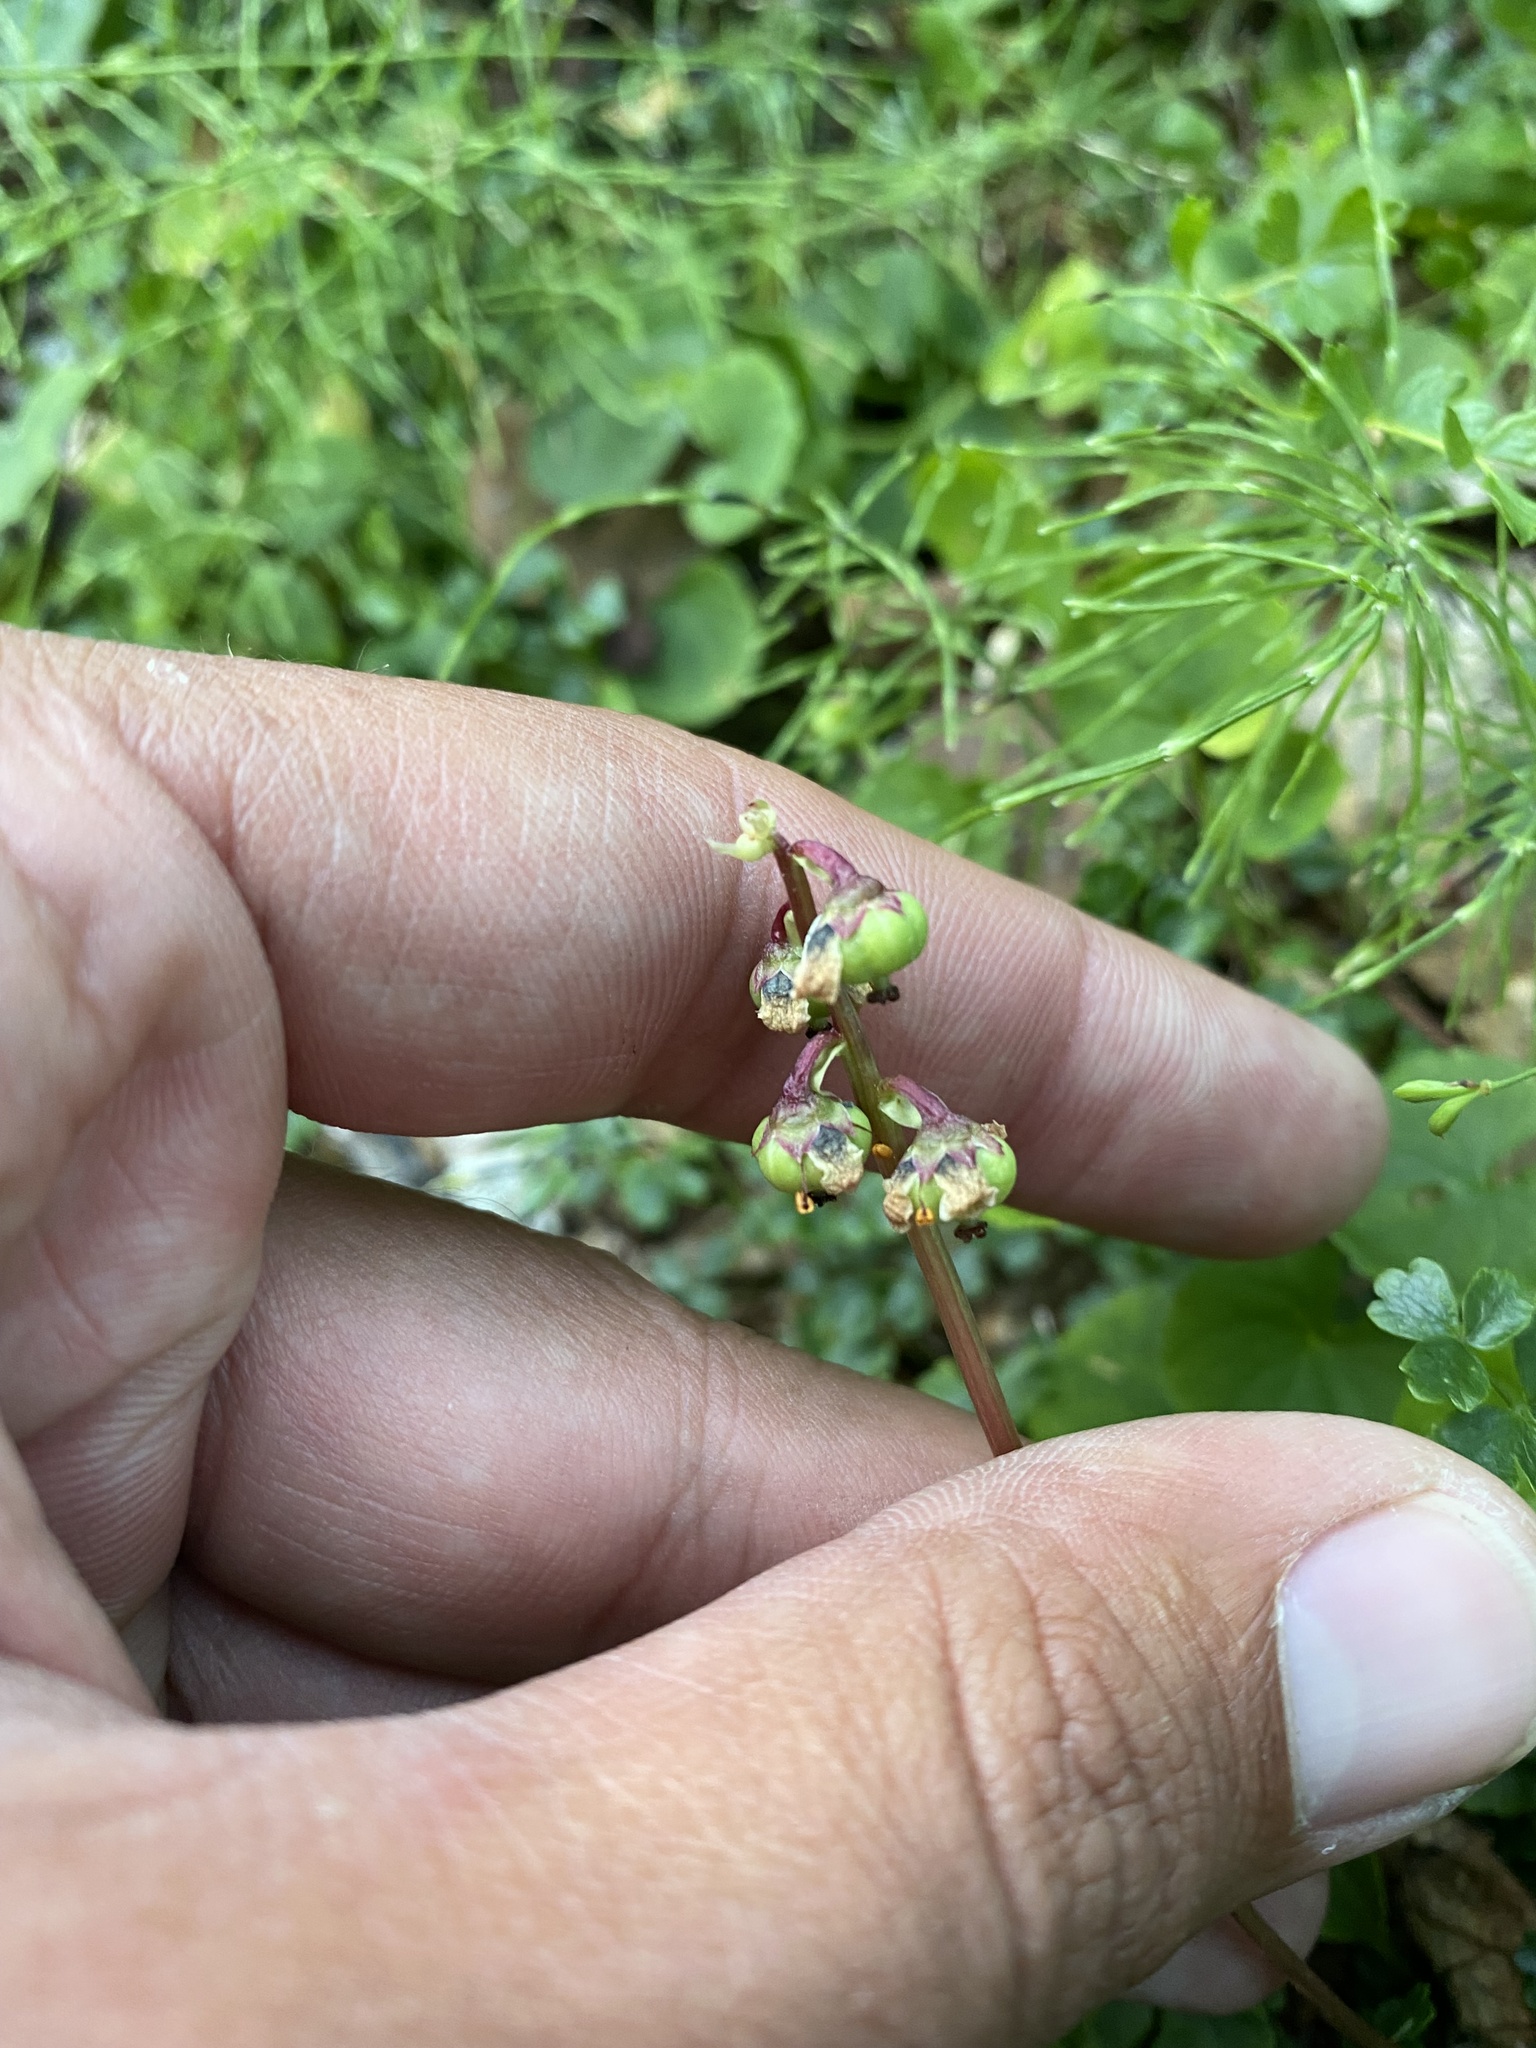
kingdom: Plantae
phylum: Tracheophyta
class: Magnoliopsida
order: Ericales
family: Ericaceae
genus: Pyrola
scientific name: Pyrola minor
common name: Common wintergreen
